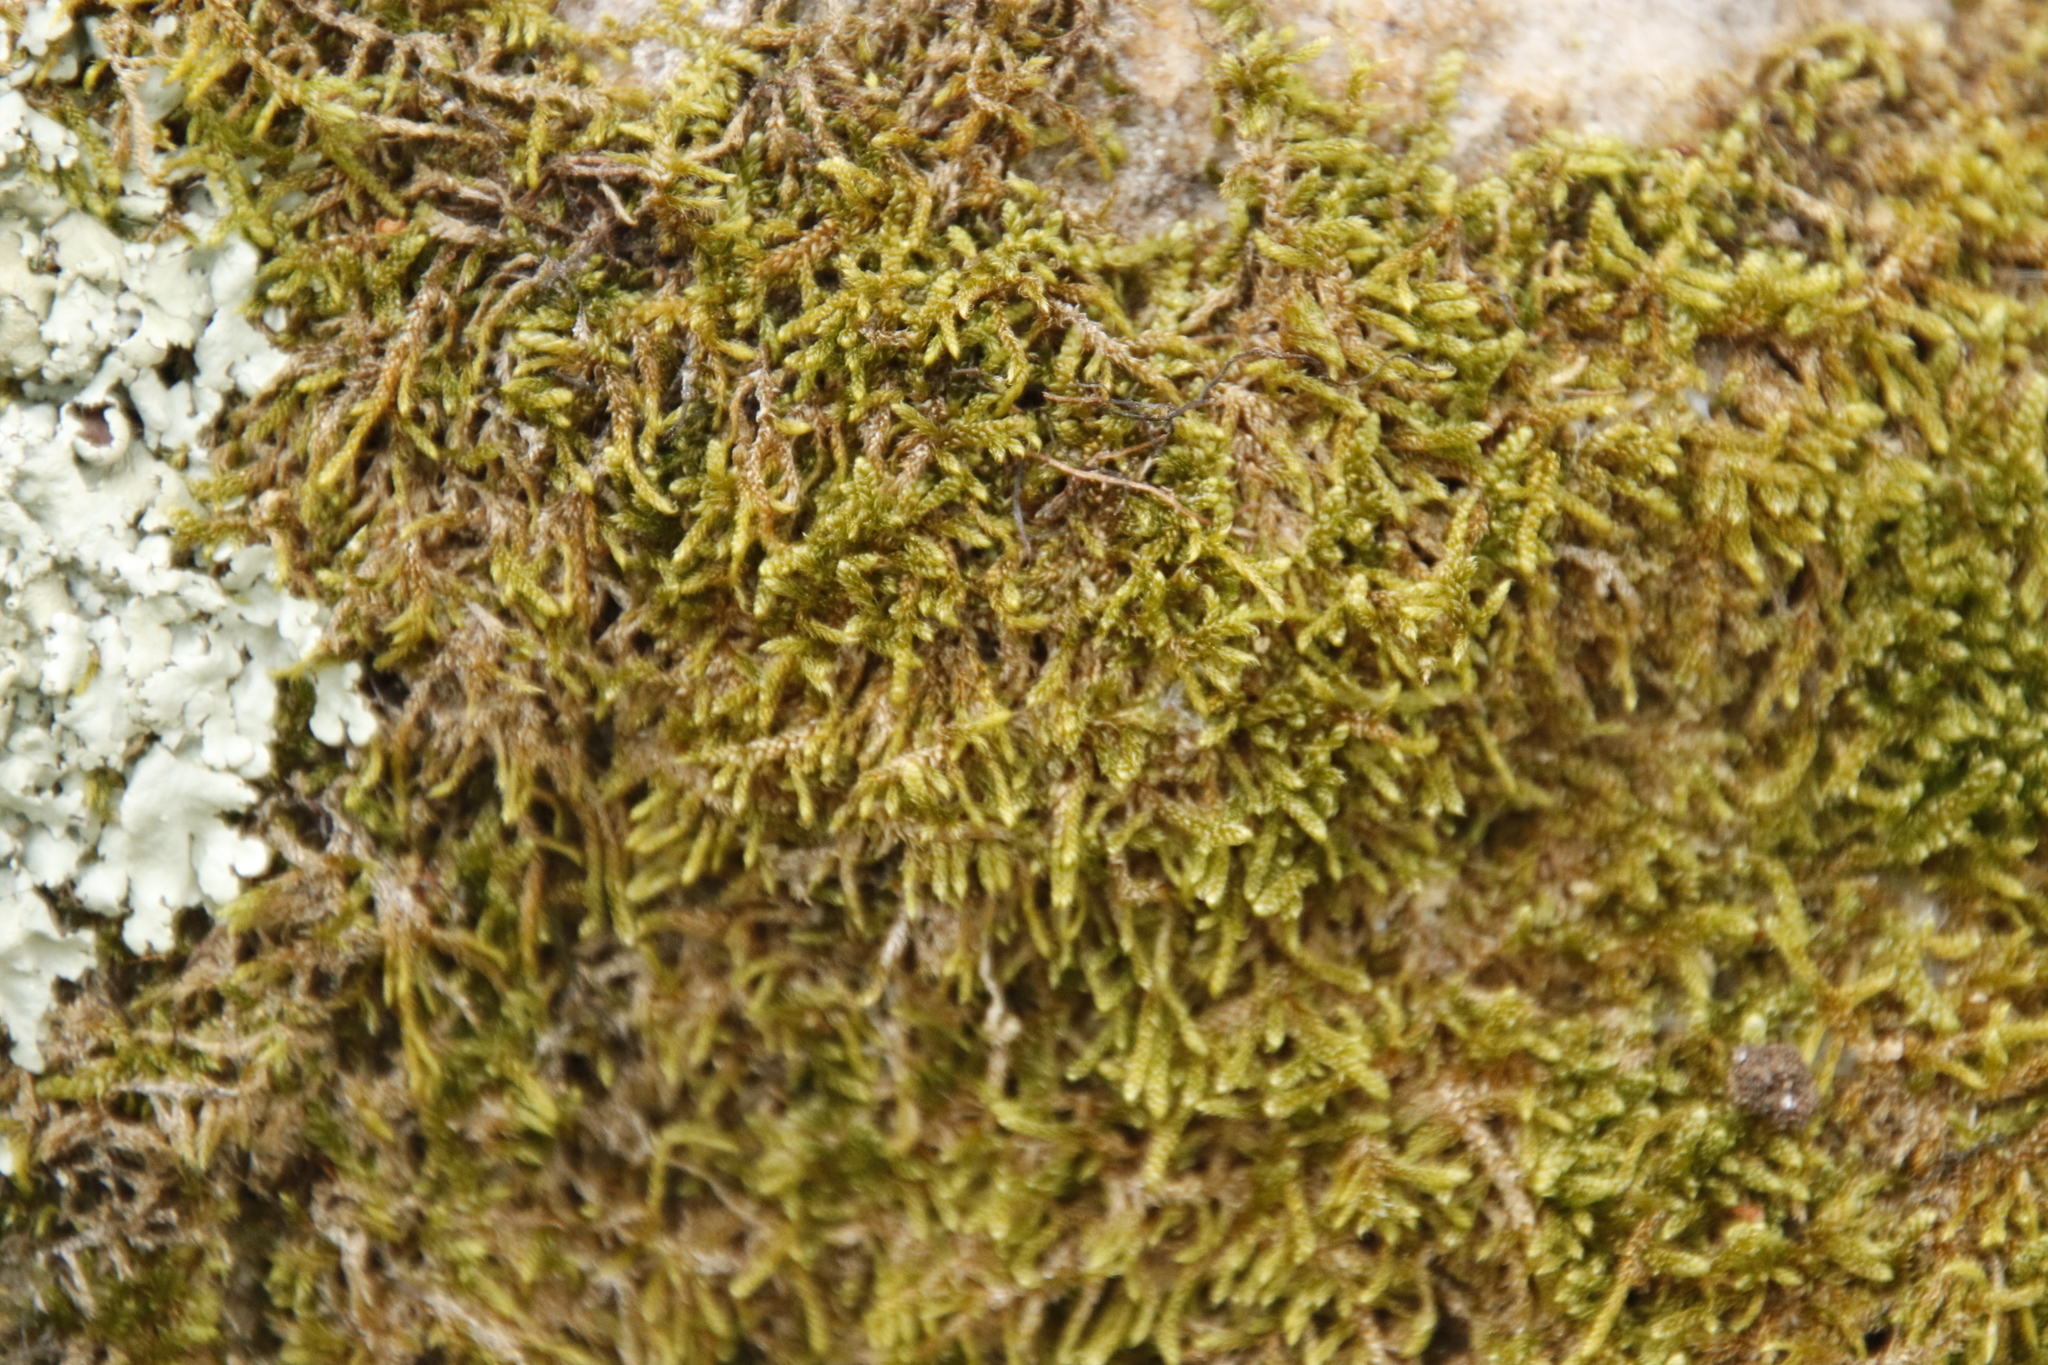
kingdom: Plantae
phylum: Bryophyta
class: Bryopsida
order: Hypnales
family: Hypnaceae
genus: Hypnum
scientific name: Hypnum cupressiforme
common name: Cypress-leaved plait-moss
